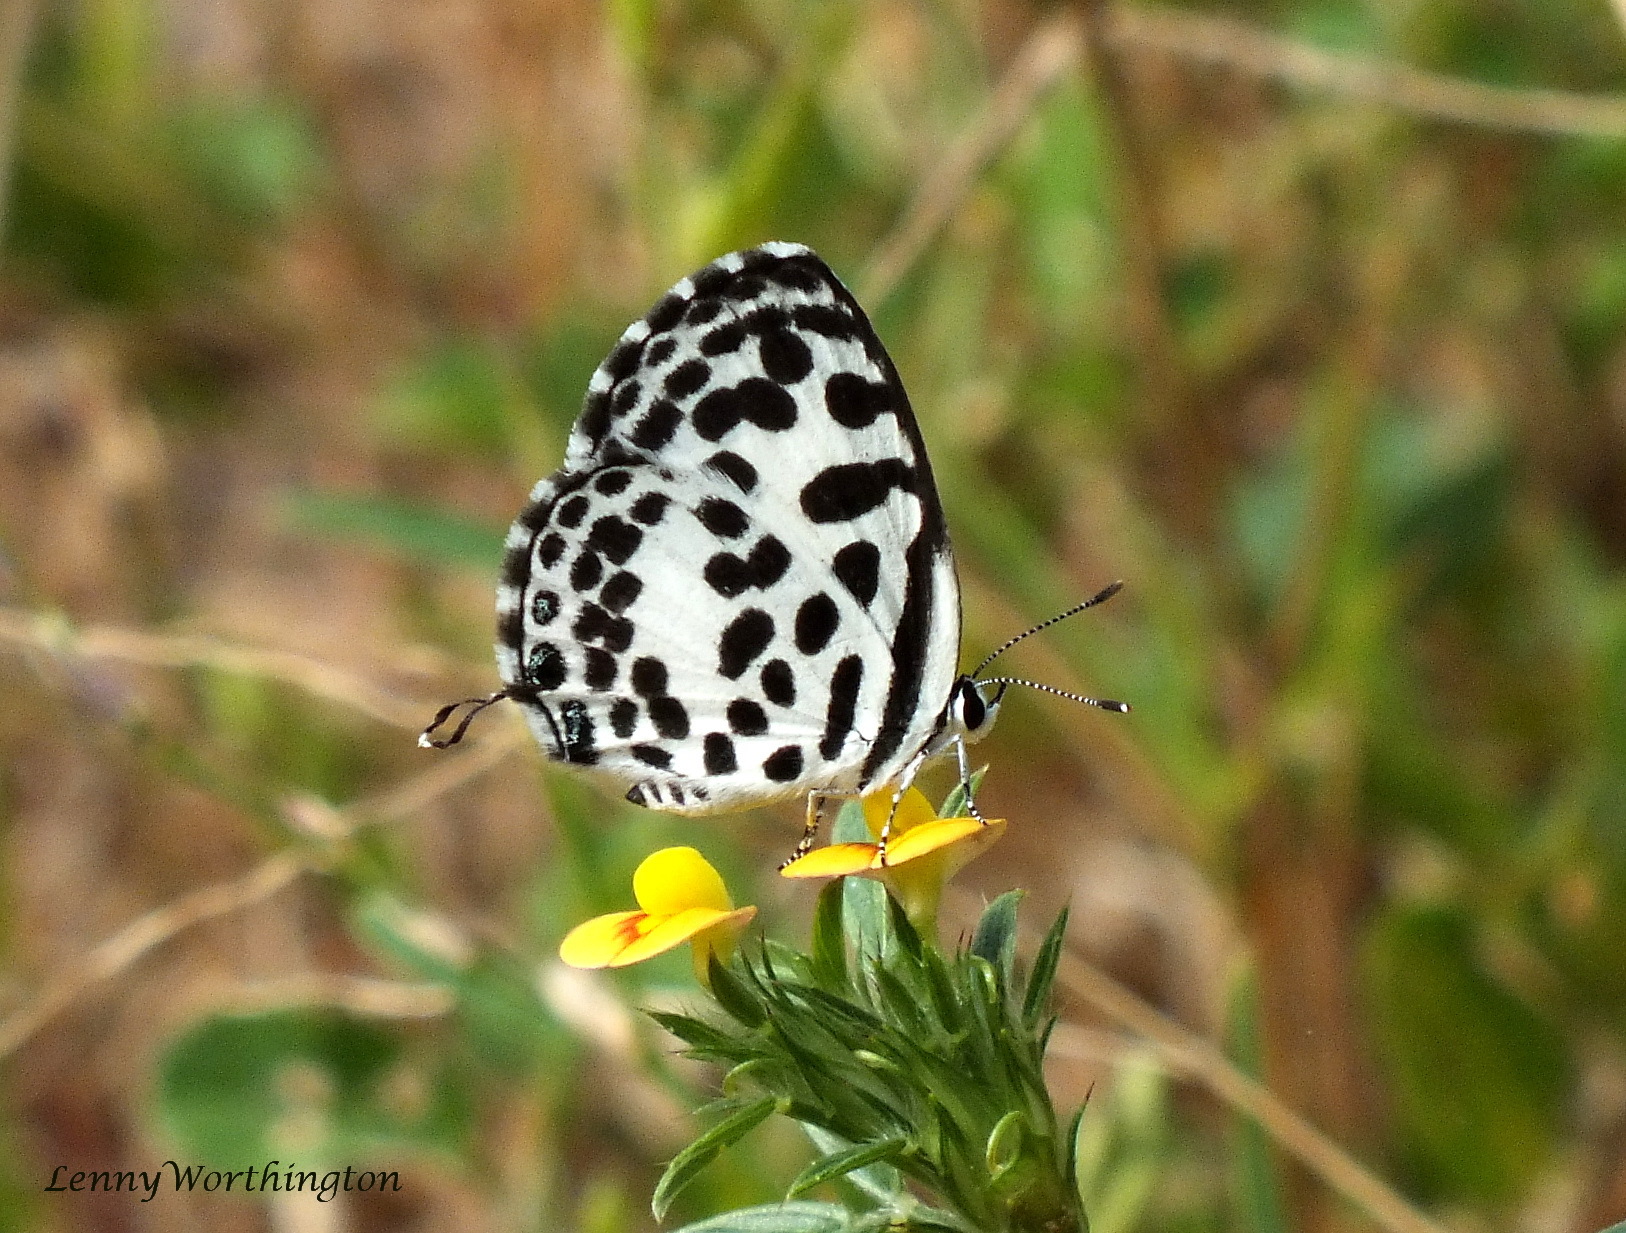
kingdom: Animalia
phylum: Arthropoda
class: Insecta
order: Lepidoptera
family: Lycaenidae
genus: Castalius
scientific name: Castalius rosimon
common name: Common pierrot
